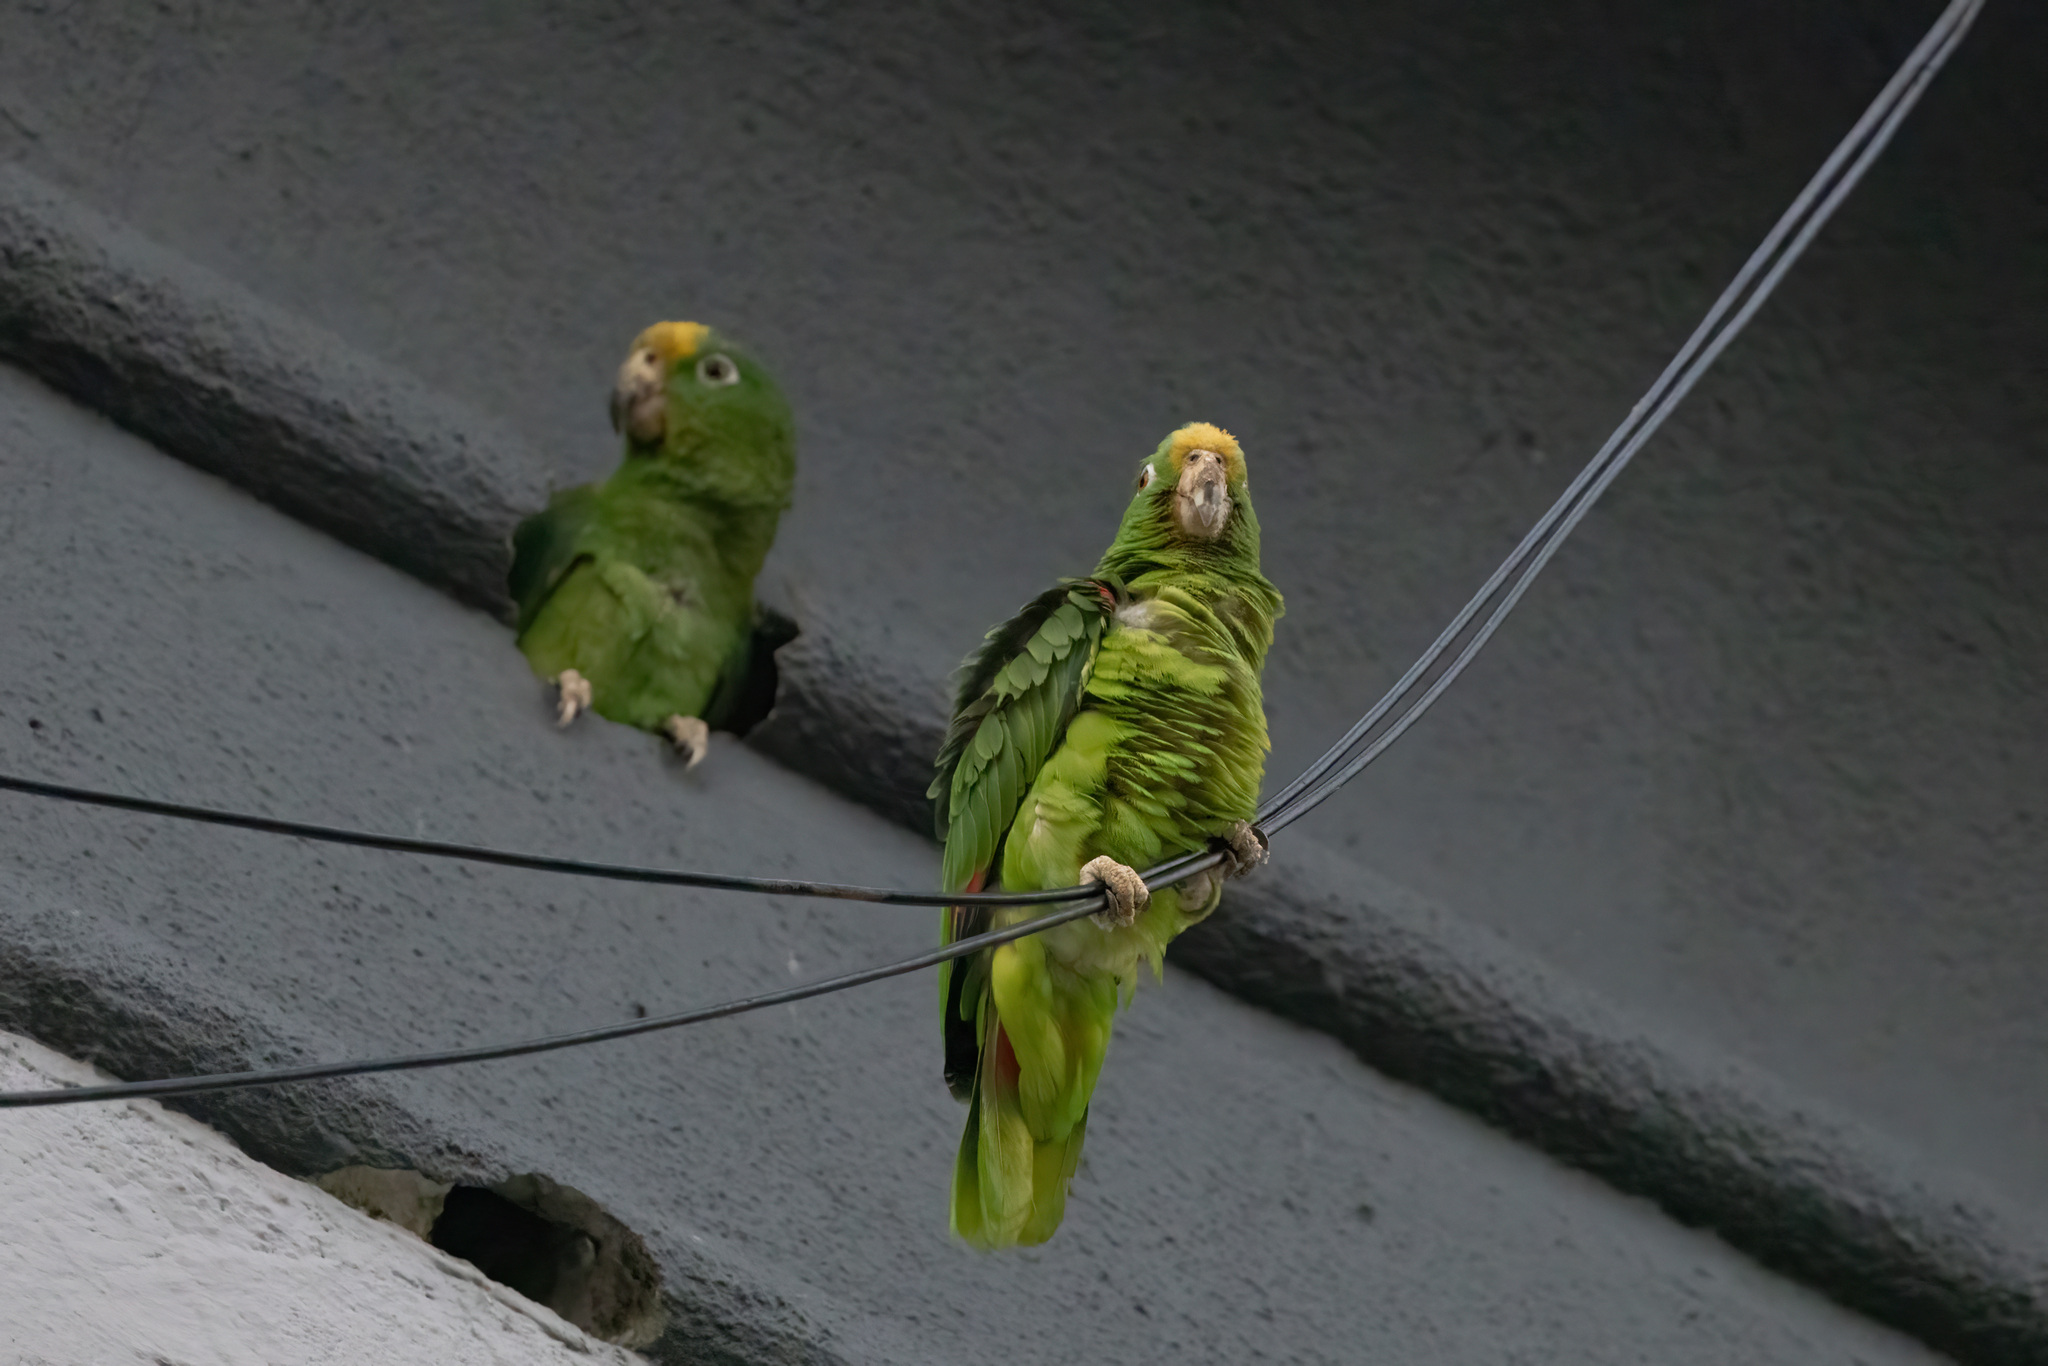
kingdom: Animalia
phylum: Chordata
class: Aves
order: Psittaciformes
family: Psittacidae
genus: Amazona
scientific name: Amazona ochrocephala
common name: Yellow-crowned amazon
